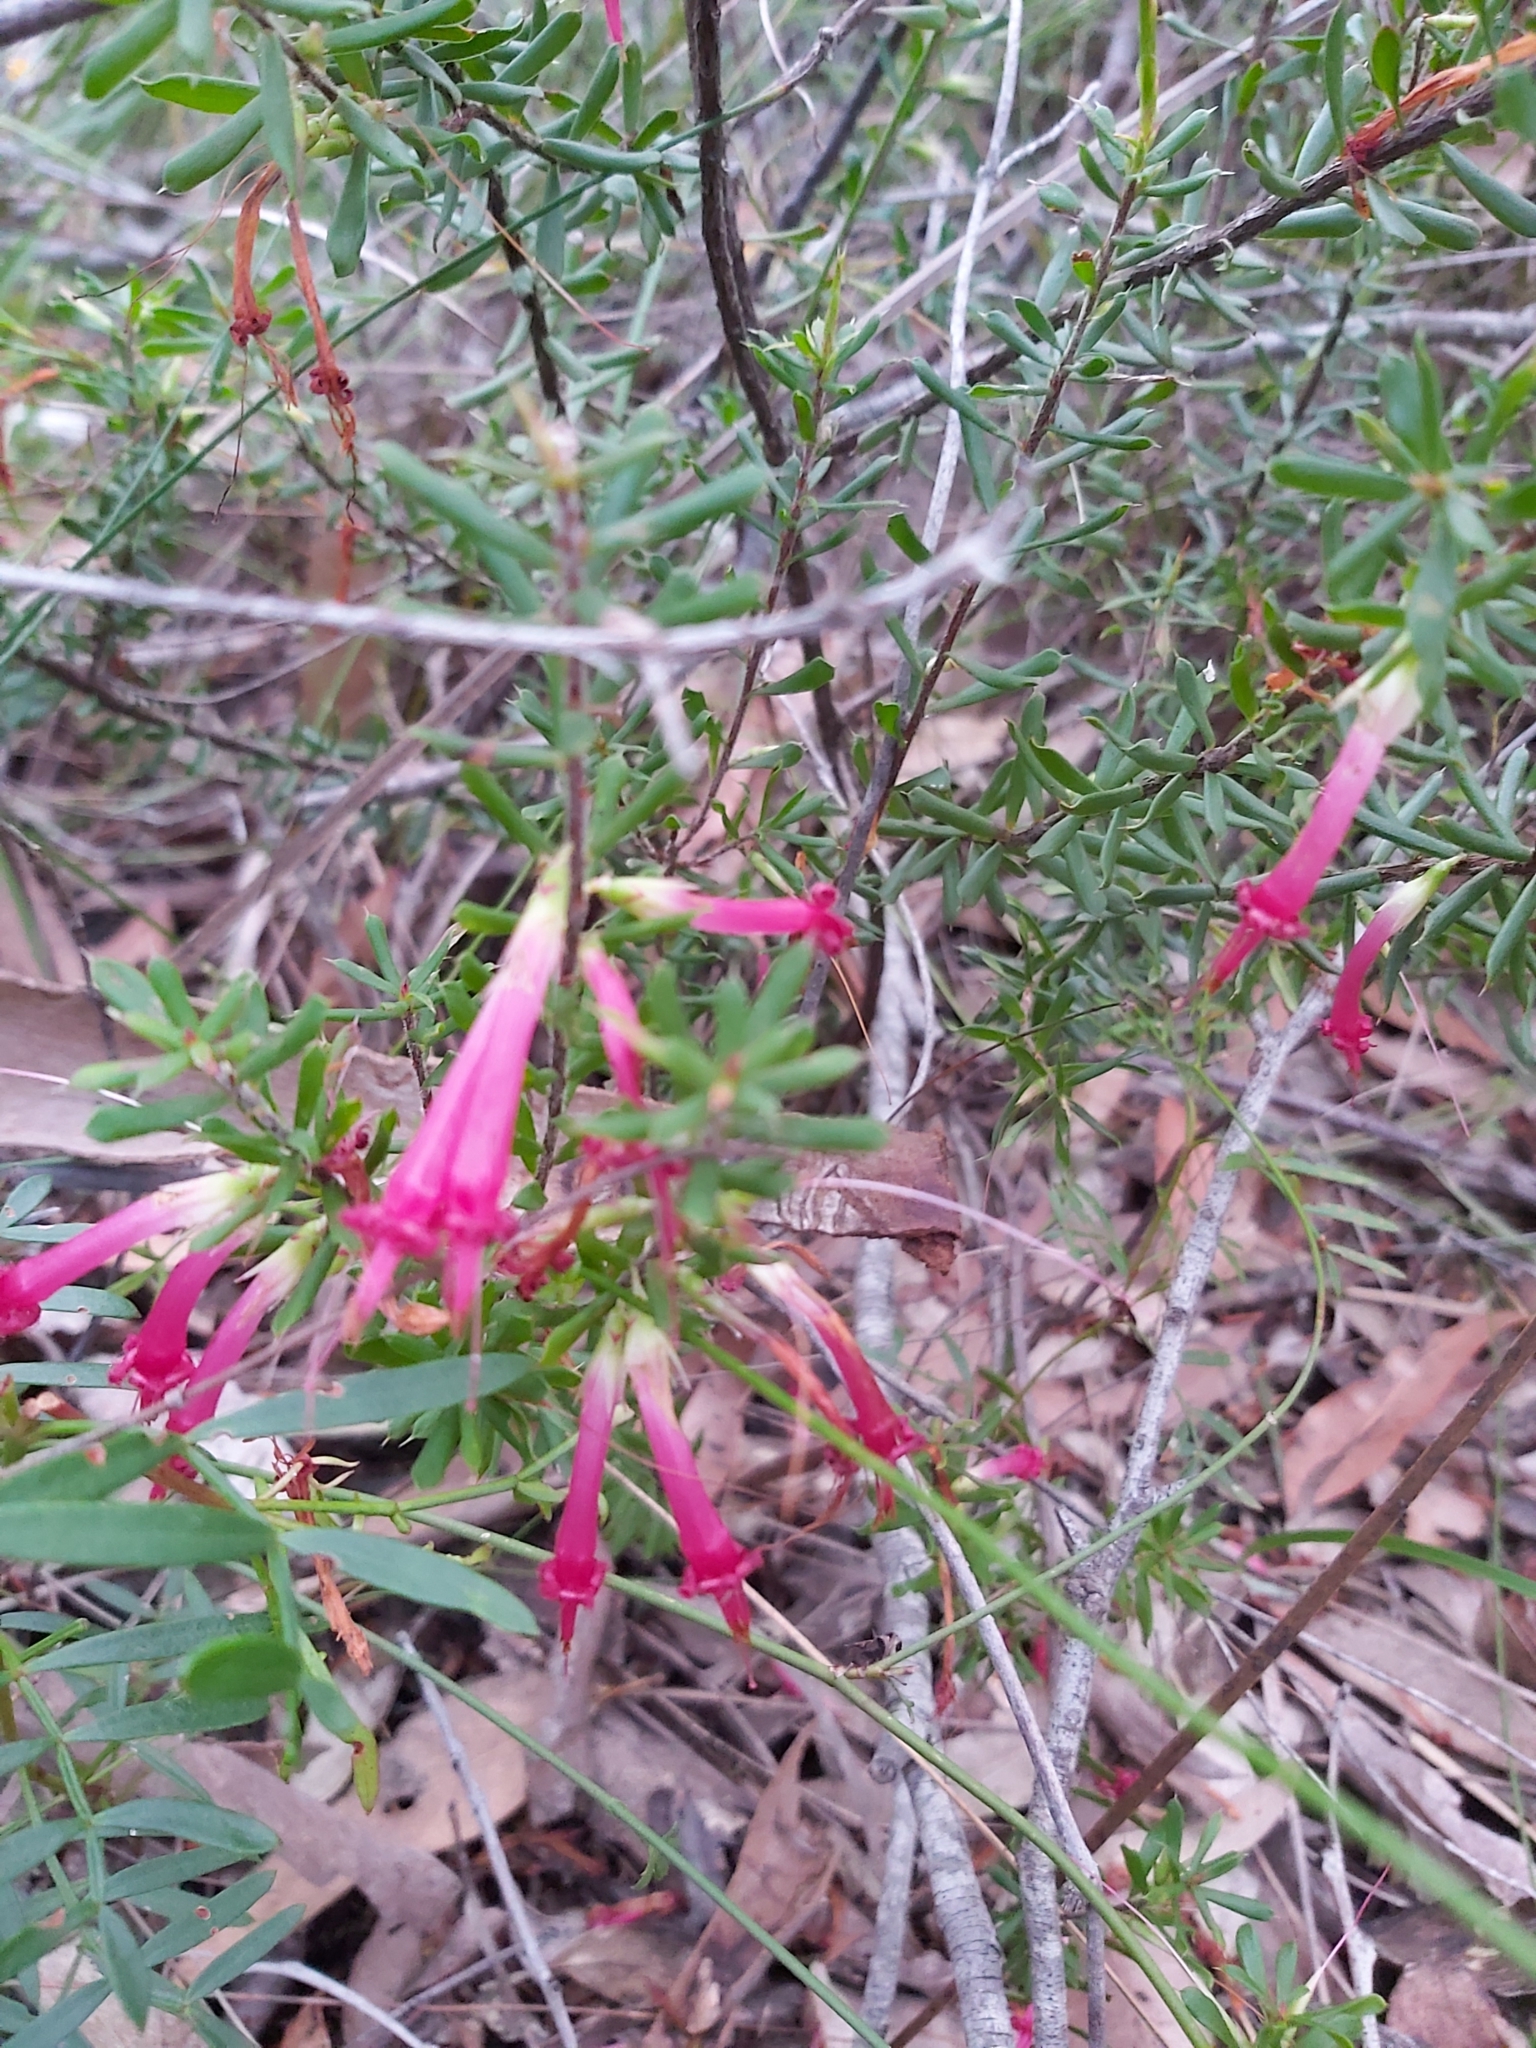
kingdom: Plantae
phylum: Tracheophyta
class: Magnoliopsida
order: Ericales
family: Ericaceae
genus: Styphelia
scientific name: Styphelia tubiflora
